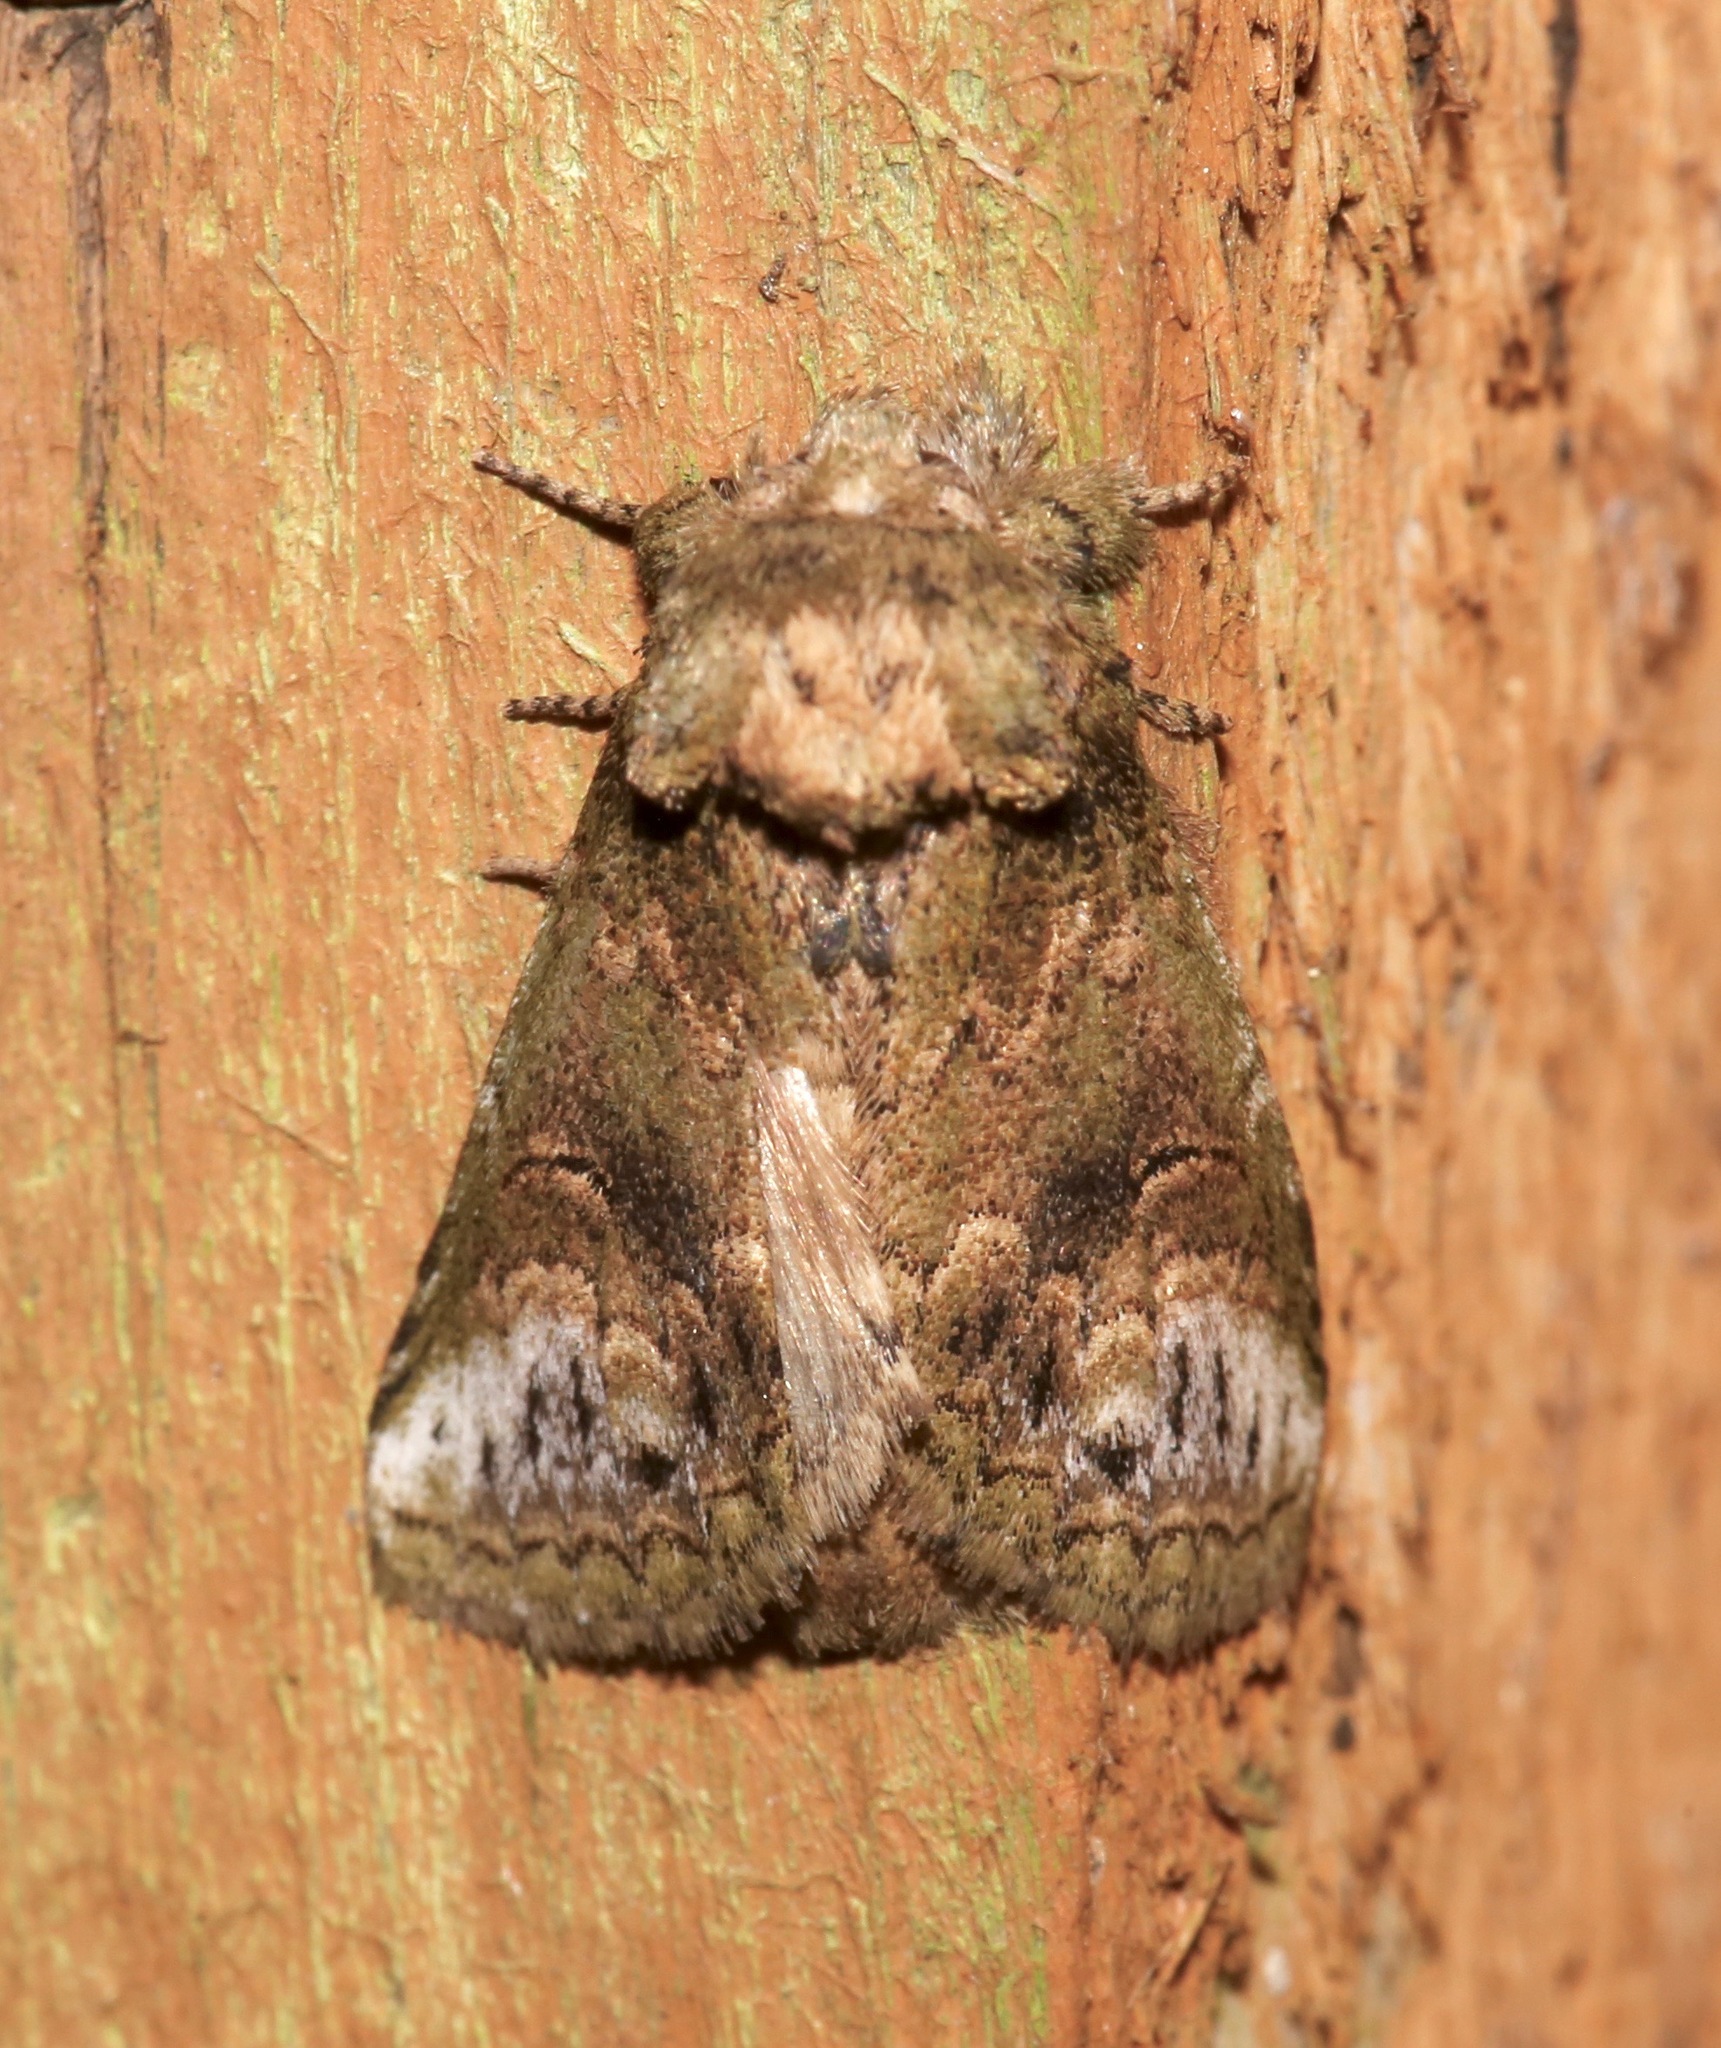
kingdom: Animalia
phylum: Arthropoda
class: Insecta
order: Lepidoptera
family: Notodontidae
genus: Rifargia
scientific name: Rifargia
